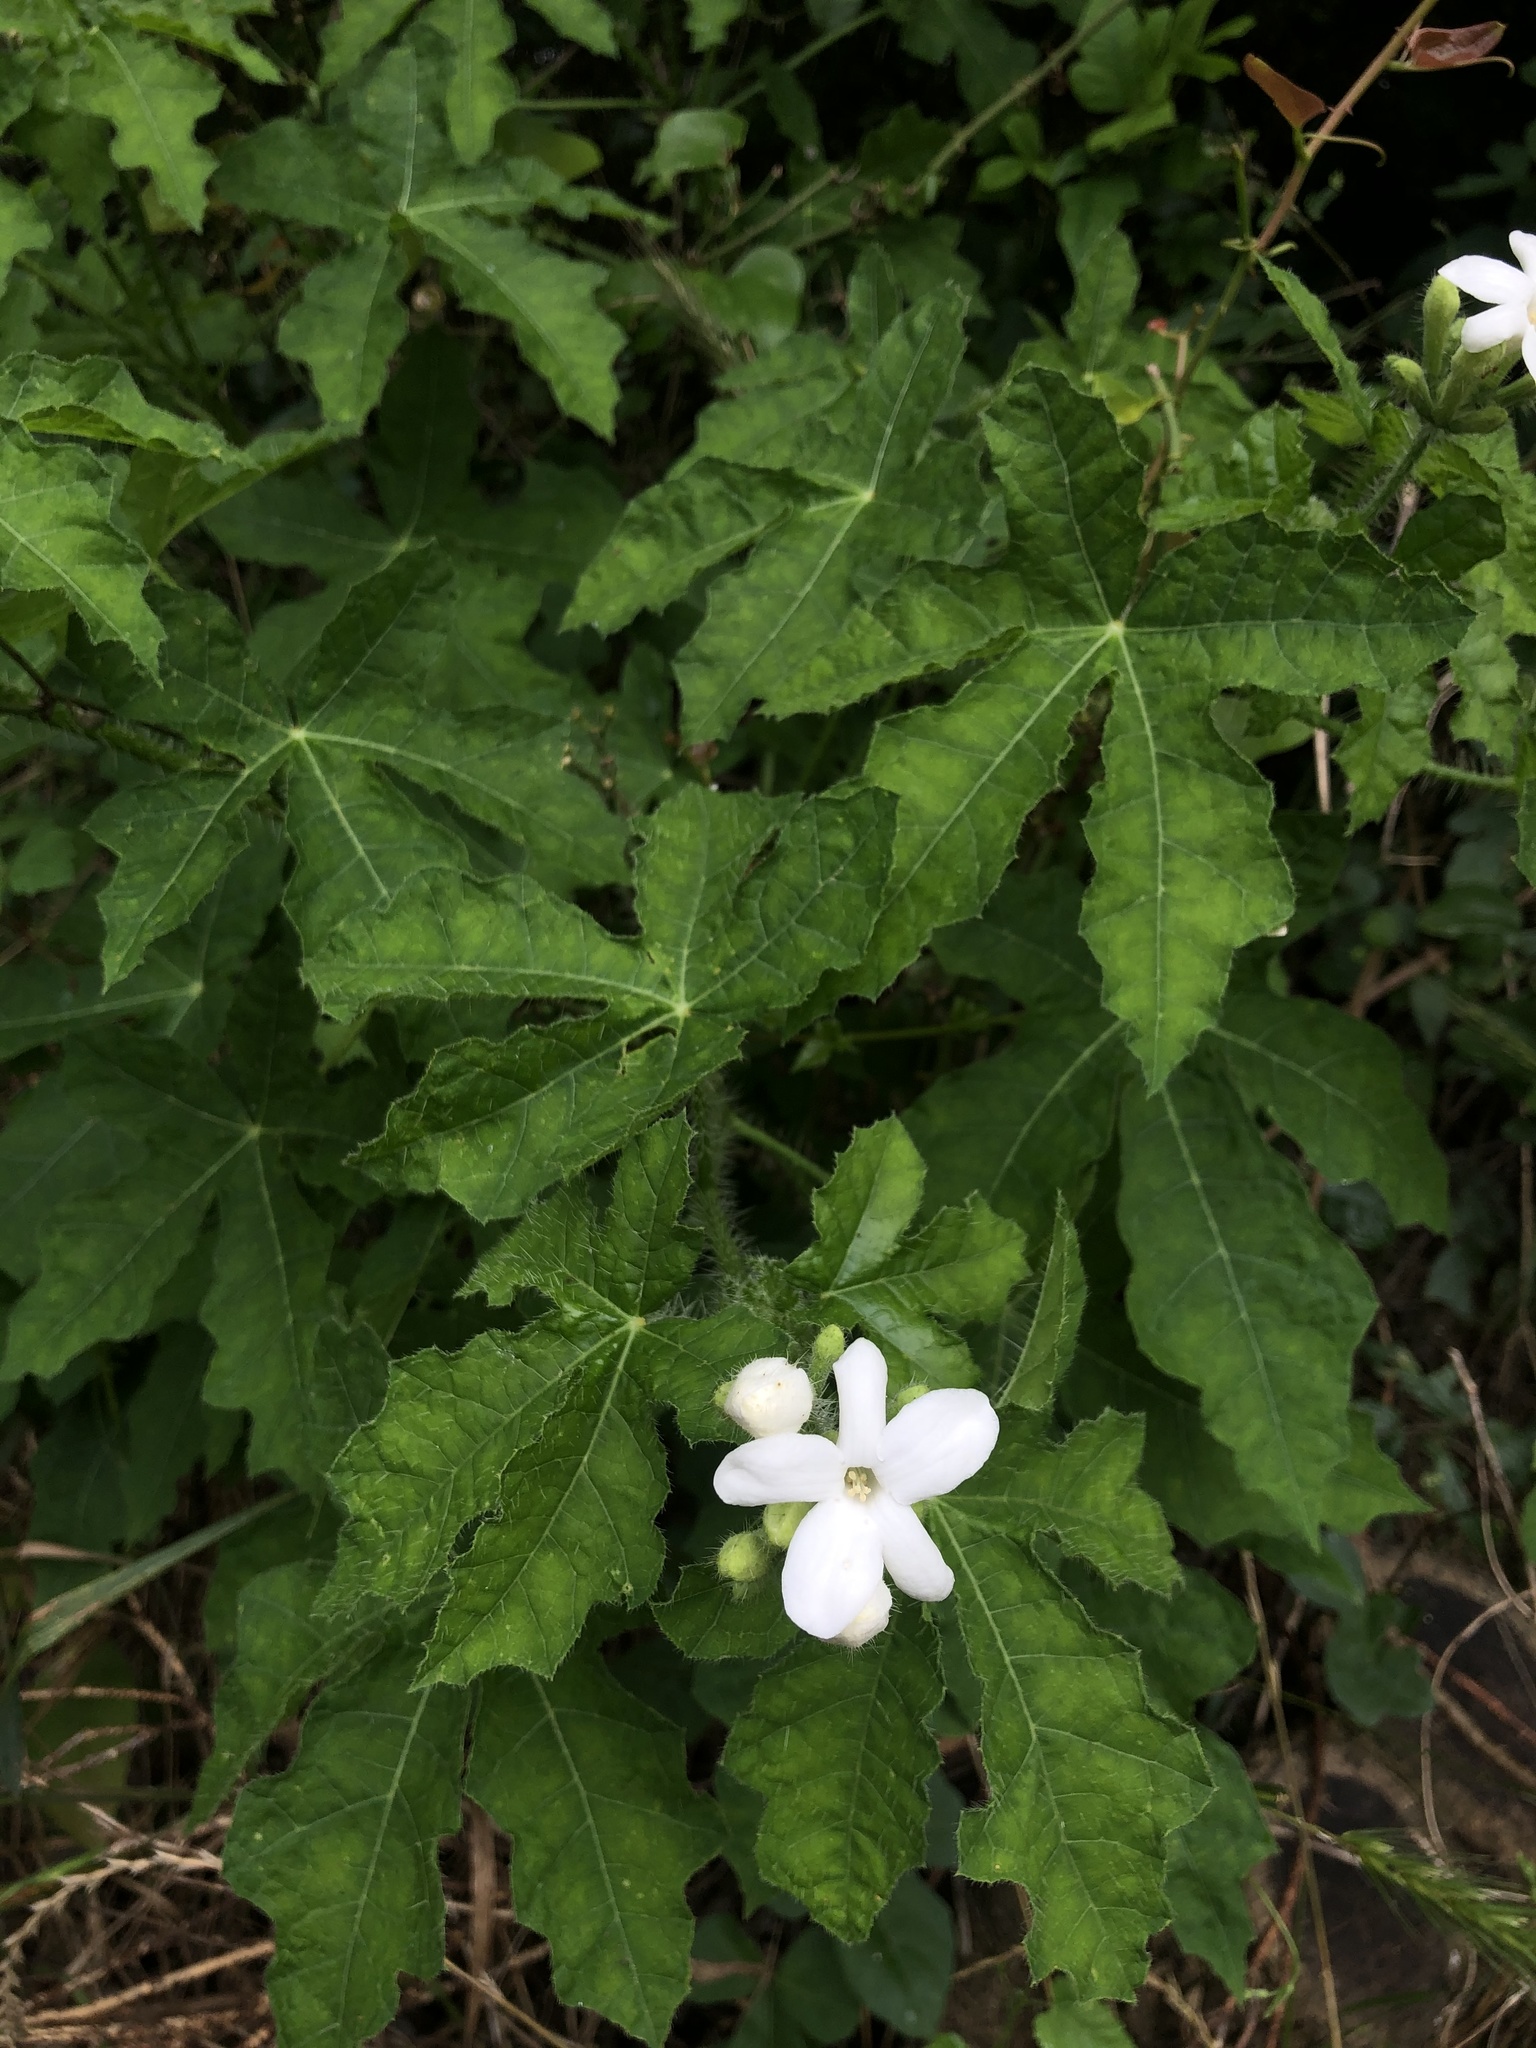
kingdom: Plantae
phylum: Tracheophyta
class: Magnoliopsida
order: Malpighiales
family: Euphorbiaceae
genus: Cnidoscolus
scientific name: Cnidoscolus texanus
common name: Texas bull-nettle
